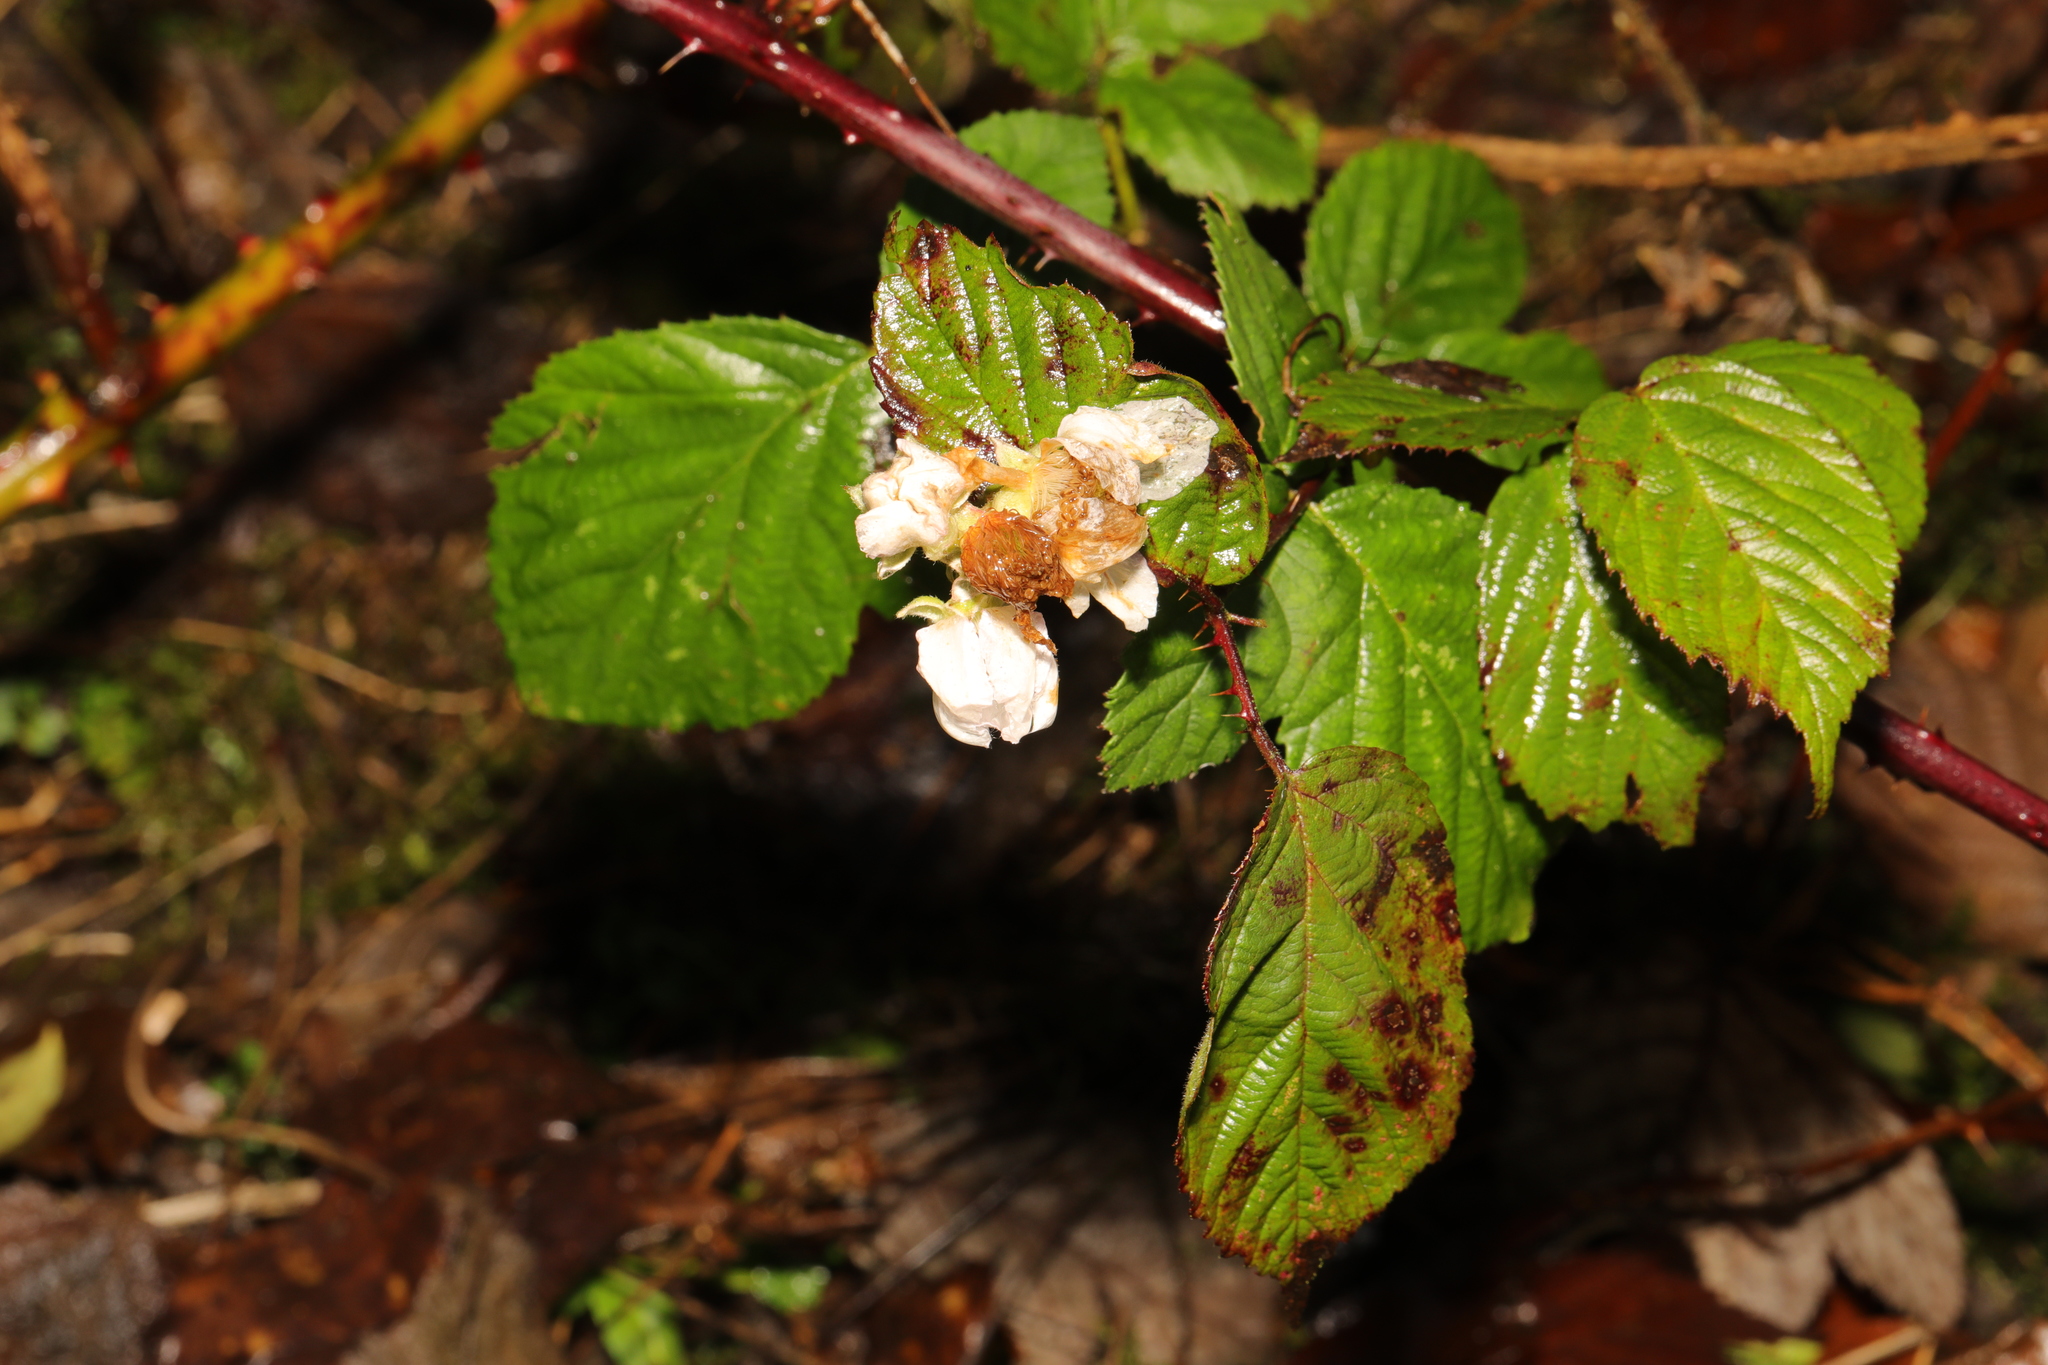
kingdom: Plantae
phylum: Tracheophyta
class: Magnoliopsida
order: Rosales
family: Rosaceae
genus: Rubus
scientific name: Rubus armeniacus
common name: Himalayan blackberry
